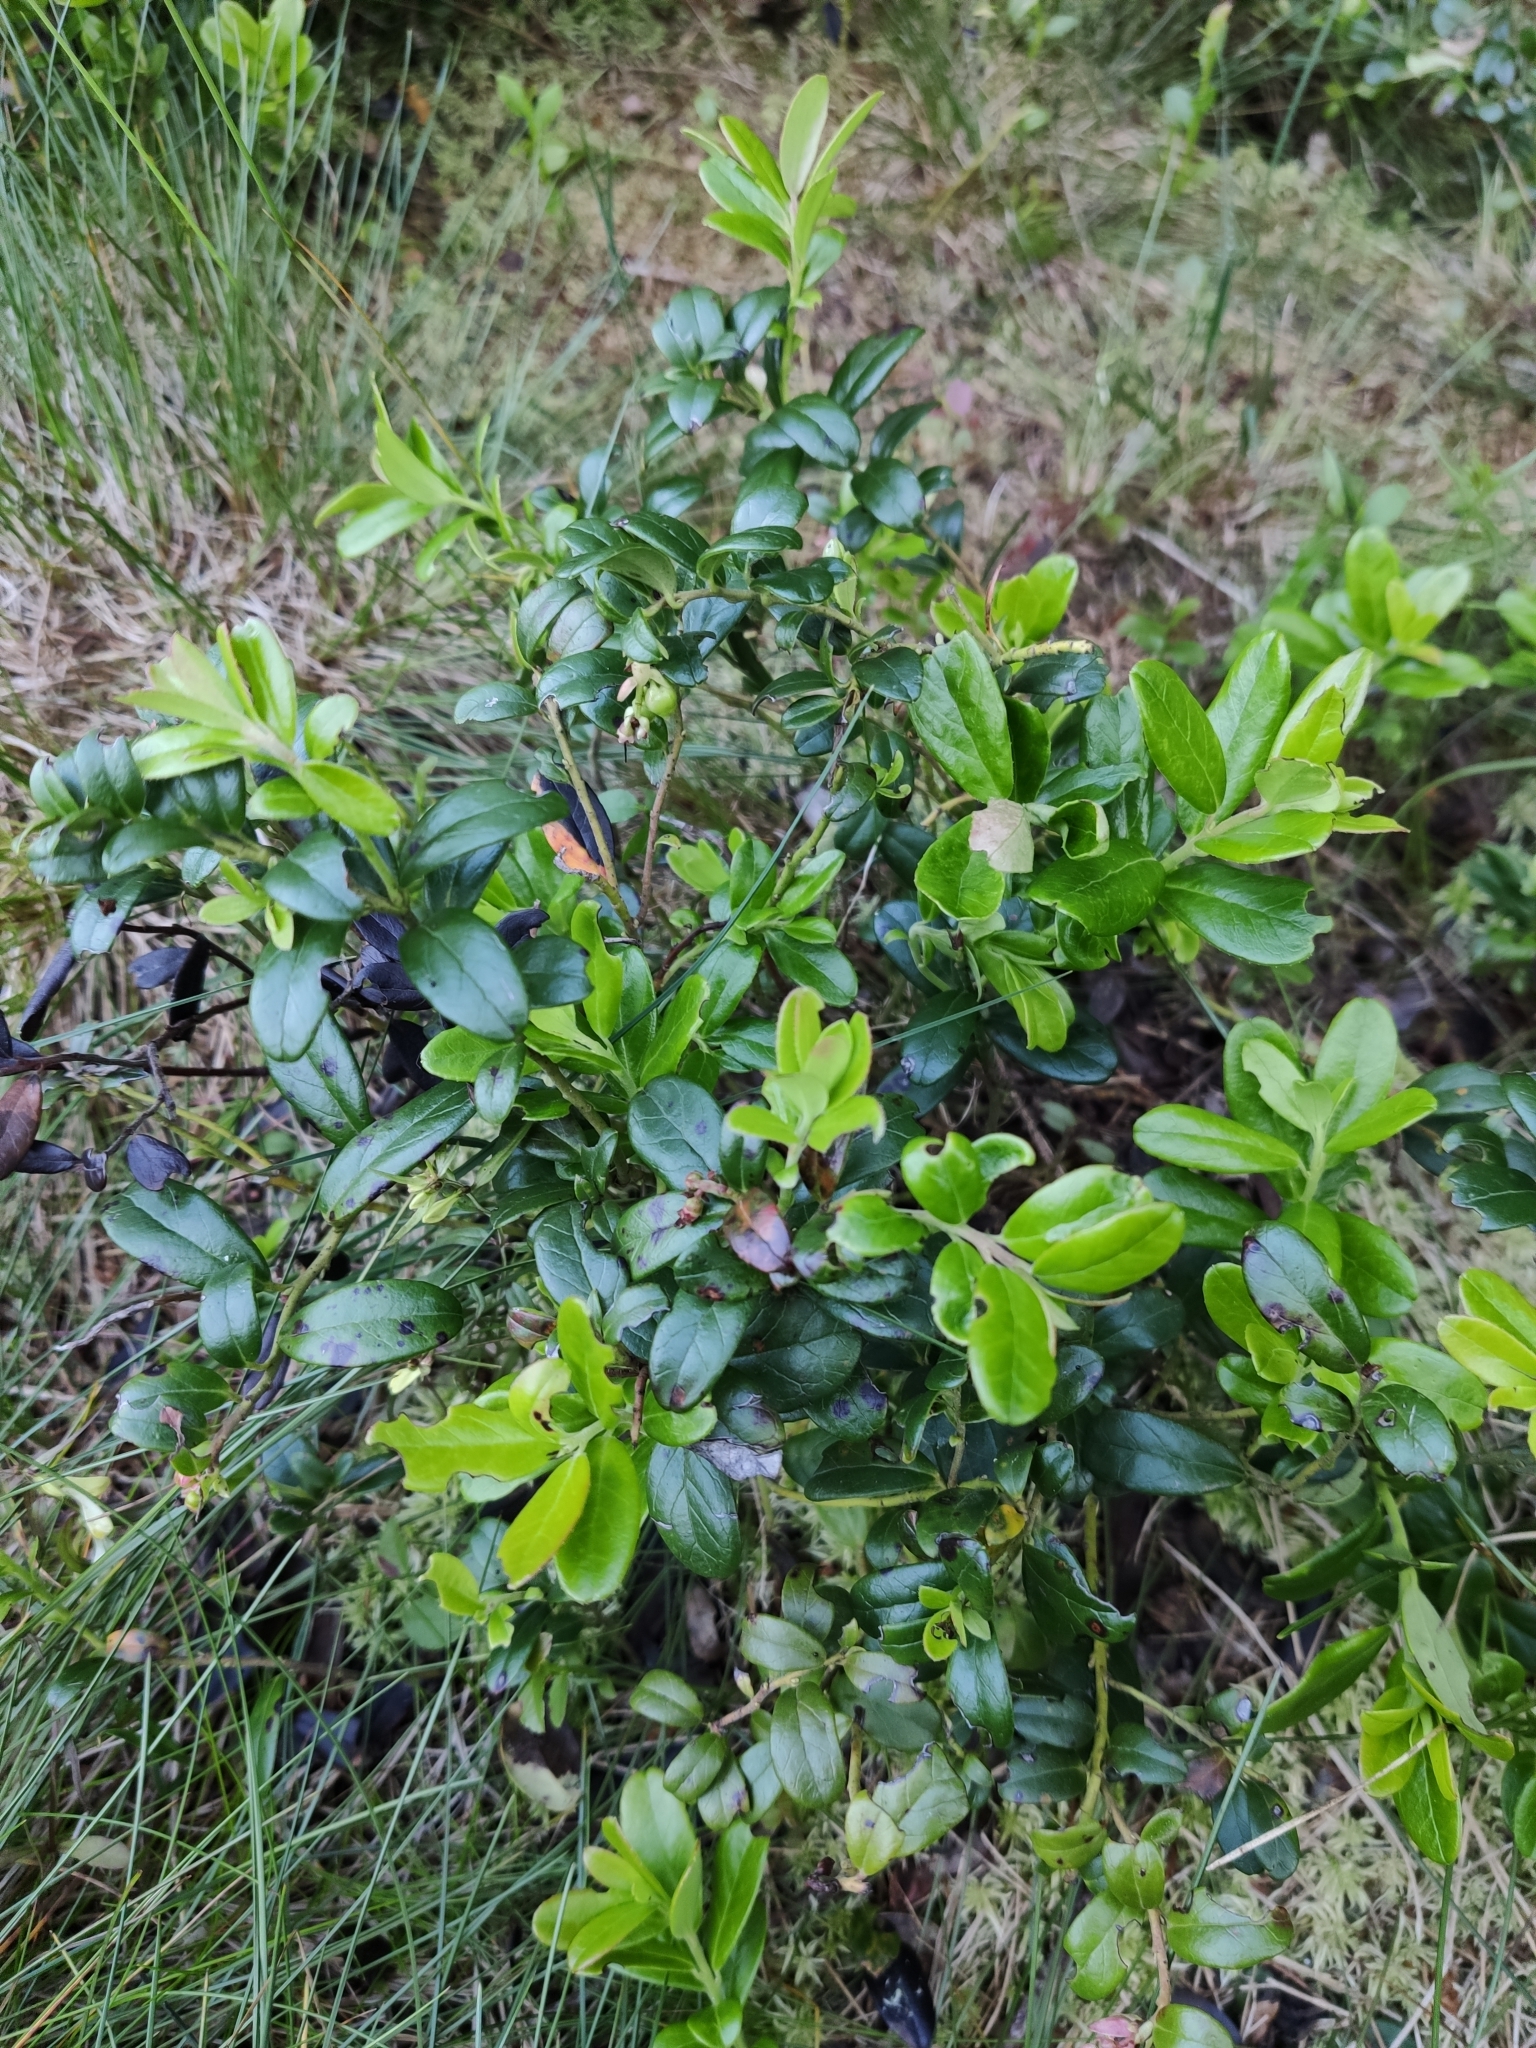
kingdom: Plantae
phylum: Tracheophyta
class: Magnoliopsida
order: Ericales
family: Ericaceae
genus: Vaccinium
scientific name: Vaccinium vitis-idaea
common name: Cowberry
